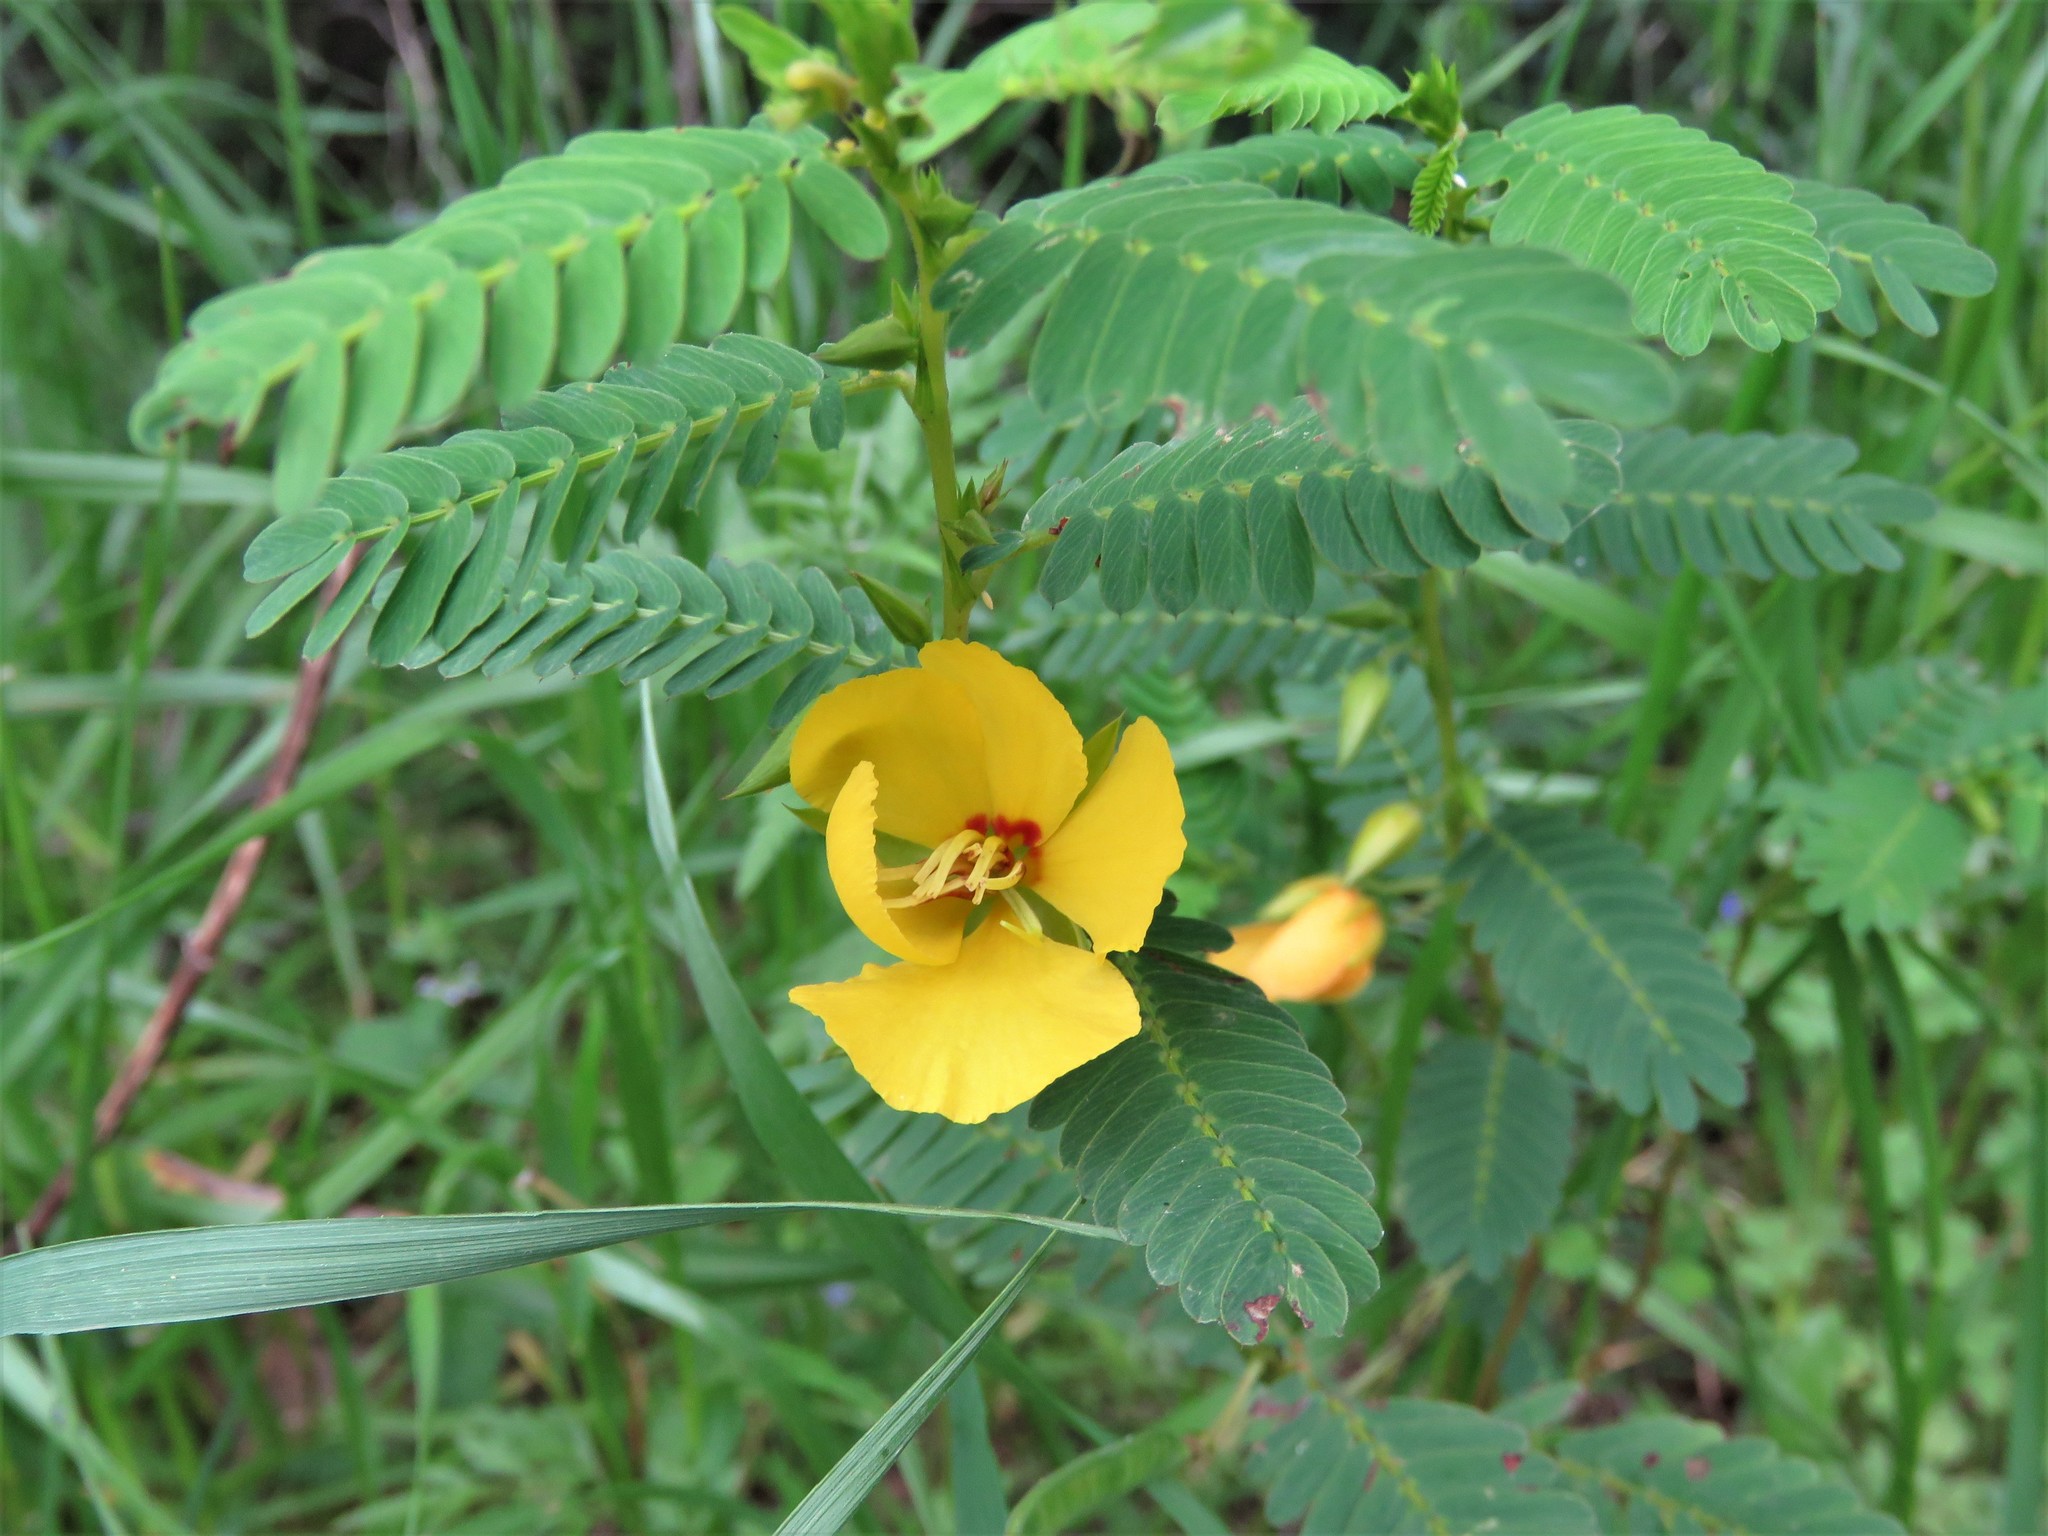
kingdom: Plantae
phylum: Tracheophyta
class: Magnoliopsida
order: Fabales
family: Fabaceae
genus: Chamaecrista
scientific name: Chamaecrista fasciculata
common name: Golden cassia
